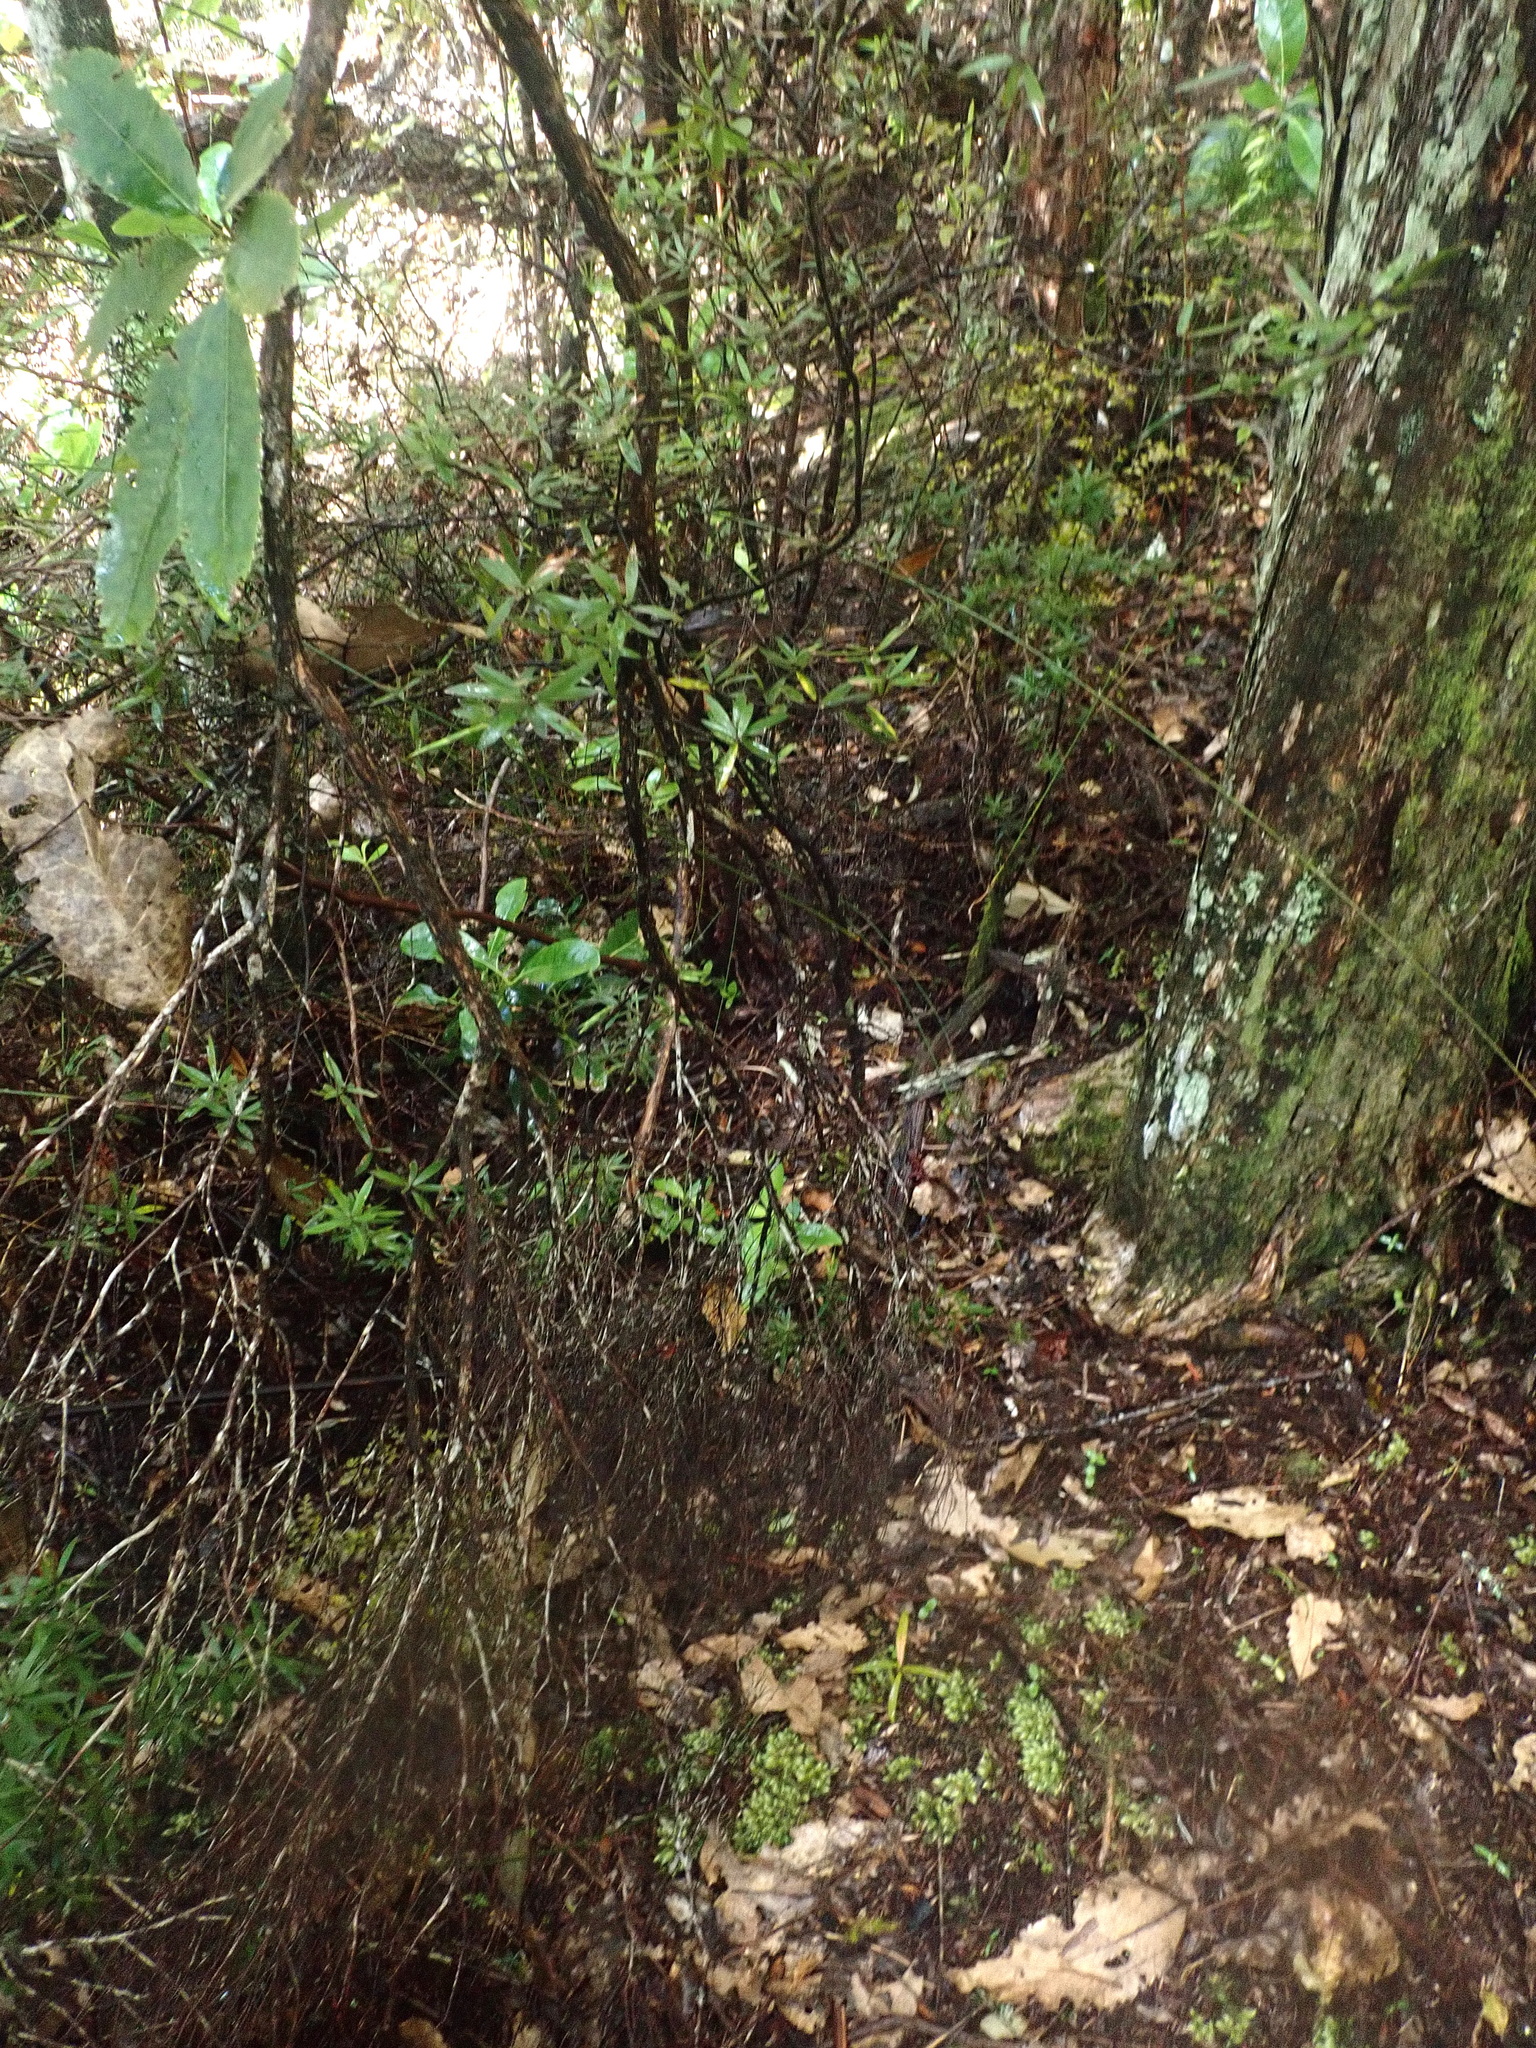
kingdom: Plantae
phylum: Tracheophyta
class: Pinopsida
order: Pinales
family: Araucariaceae
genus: Agathis
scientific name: Agathis australis
